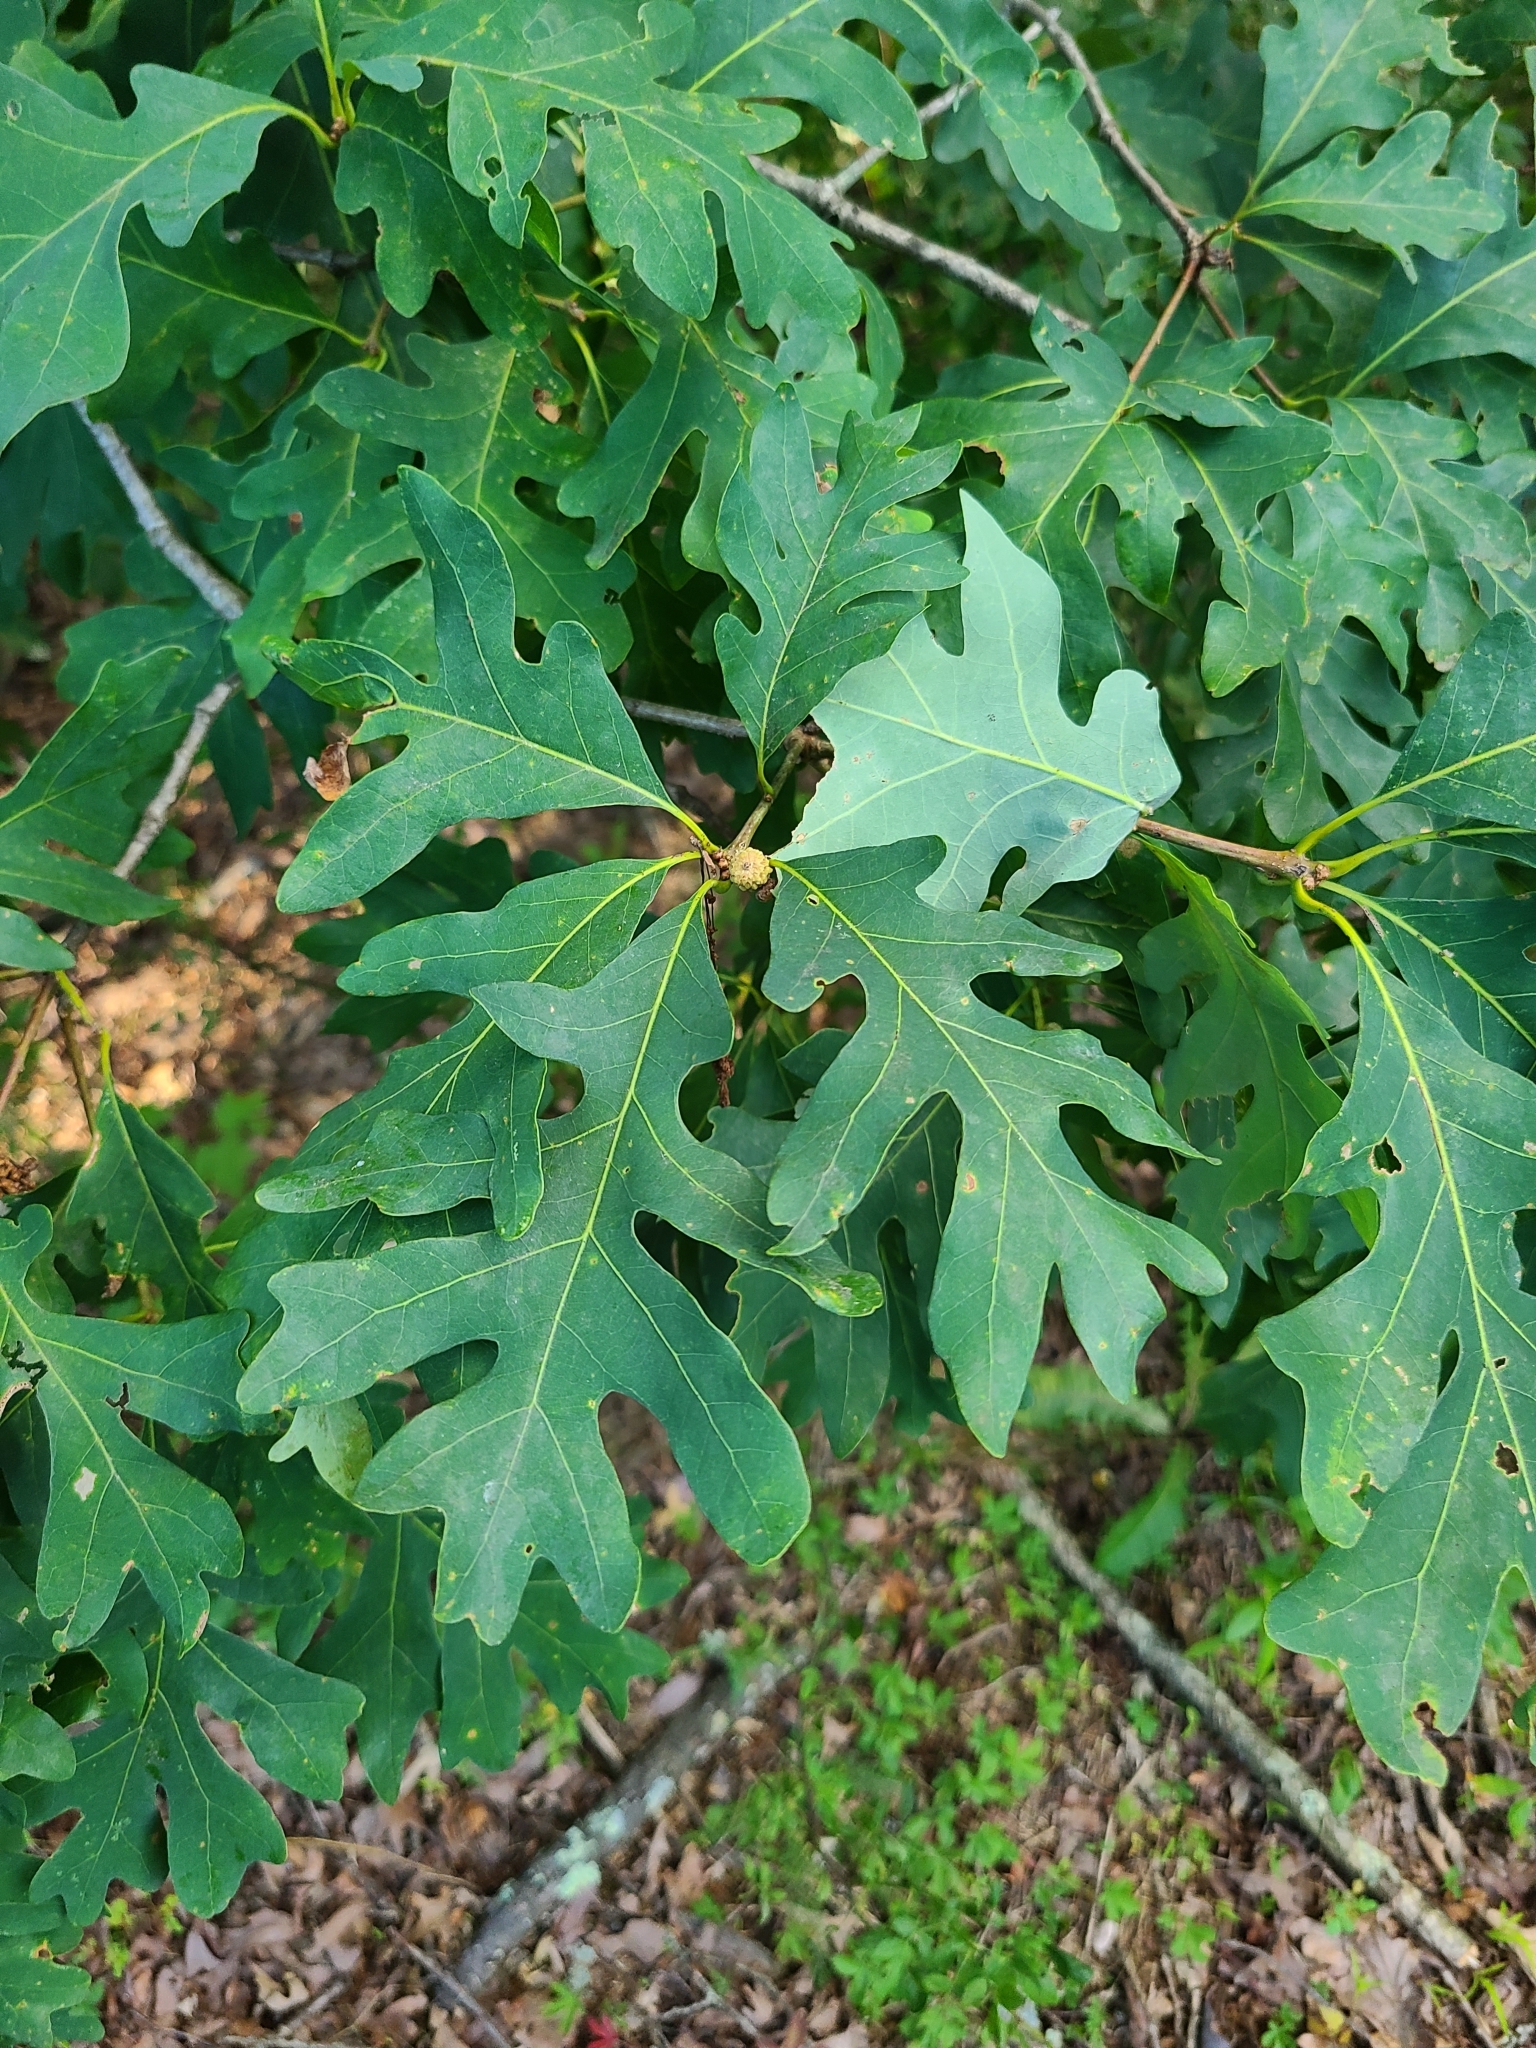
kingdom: Plantae
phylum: Tracheophyta
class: Magnoliopsida
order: Fagales
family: Fagaceae
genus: Quercus
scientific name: Quercus alba
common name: White oak
